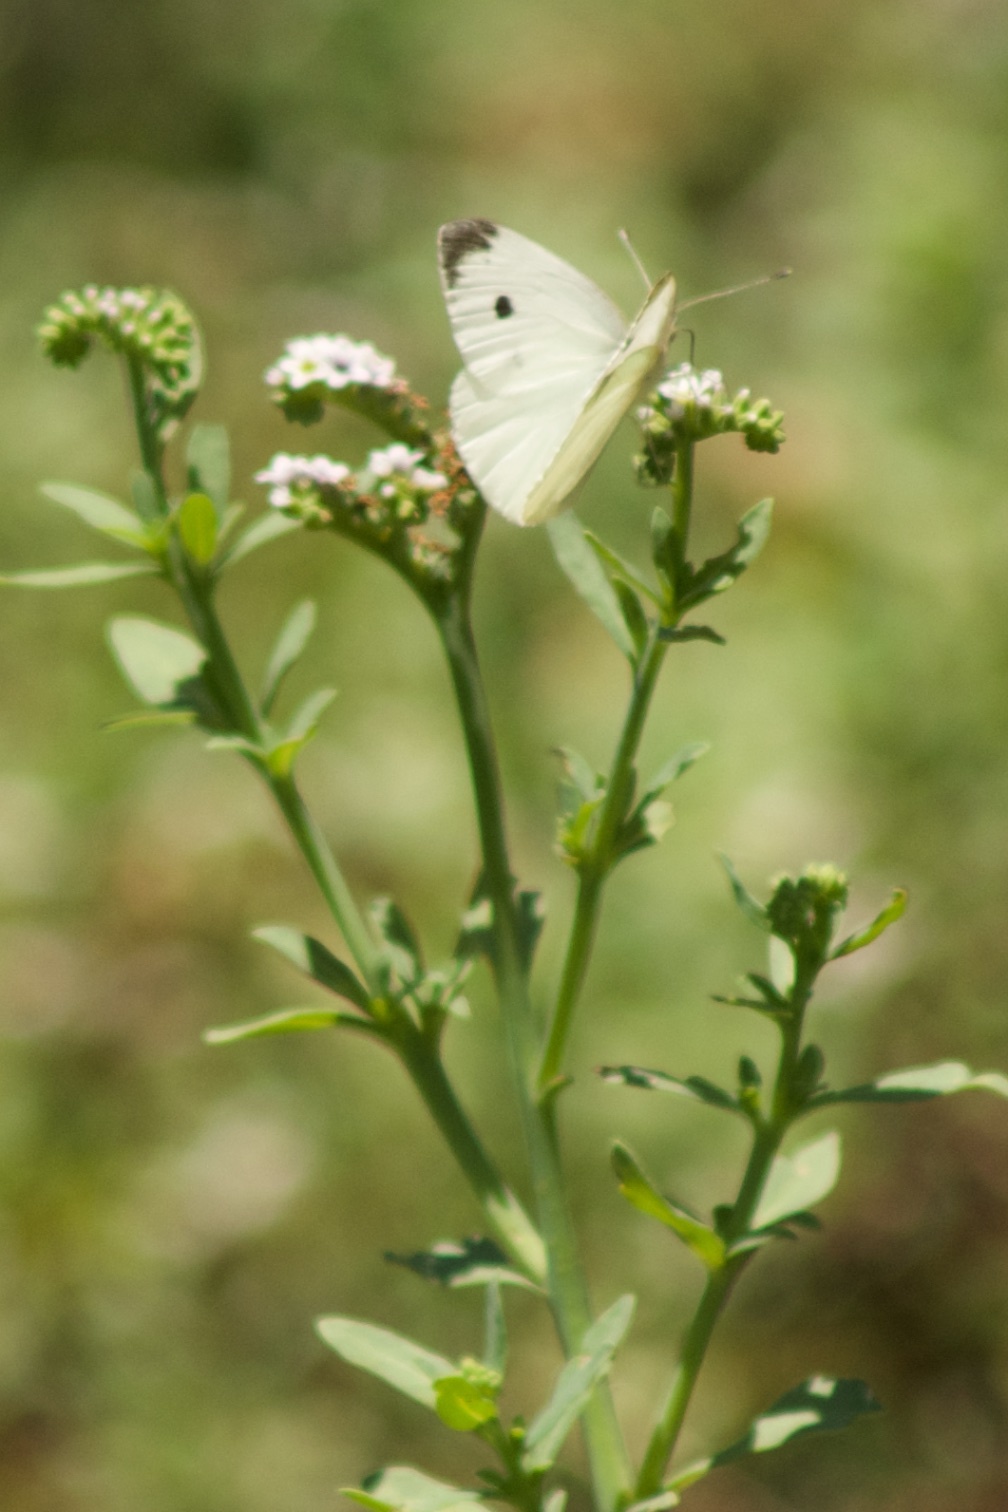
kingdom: Animalia
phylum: Arthropoda
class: Insecta
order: Lepidoptera
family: Pieridae
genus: Pieris
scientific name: Pieris rapae
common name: Small white
